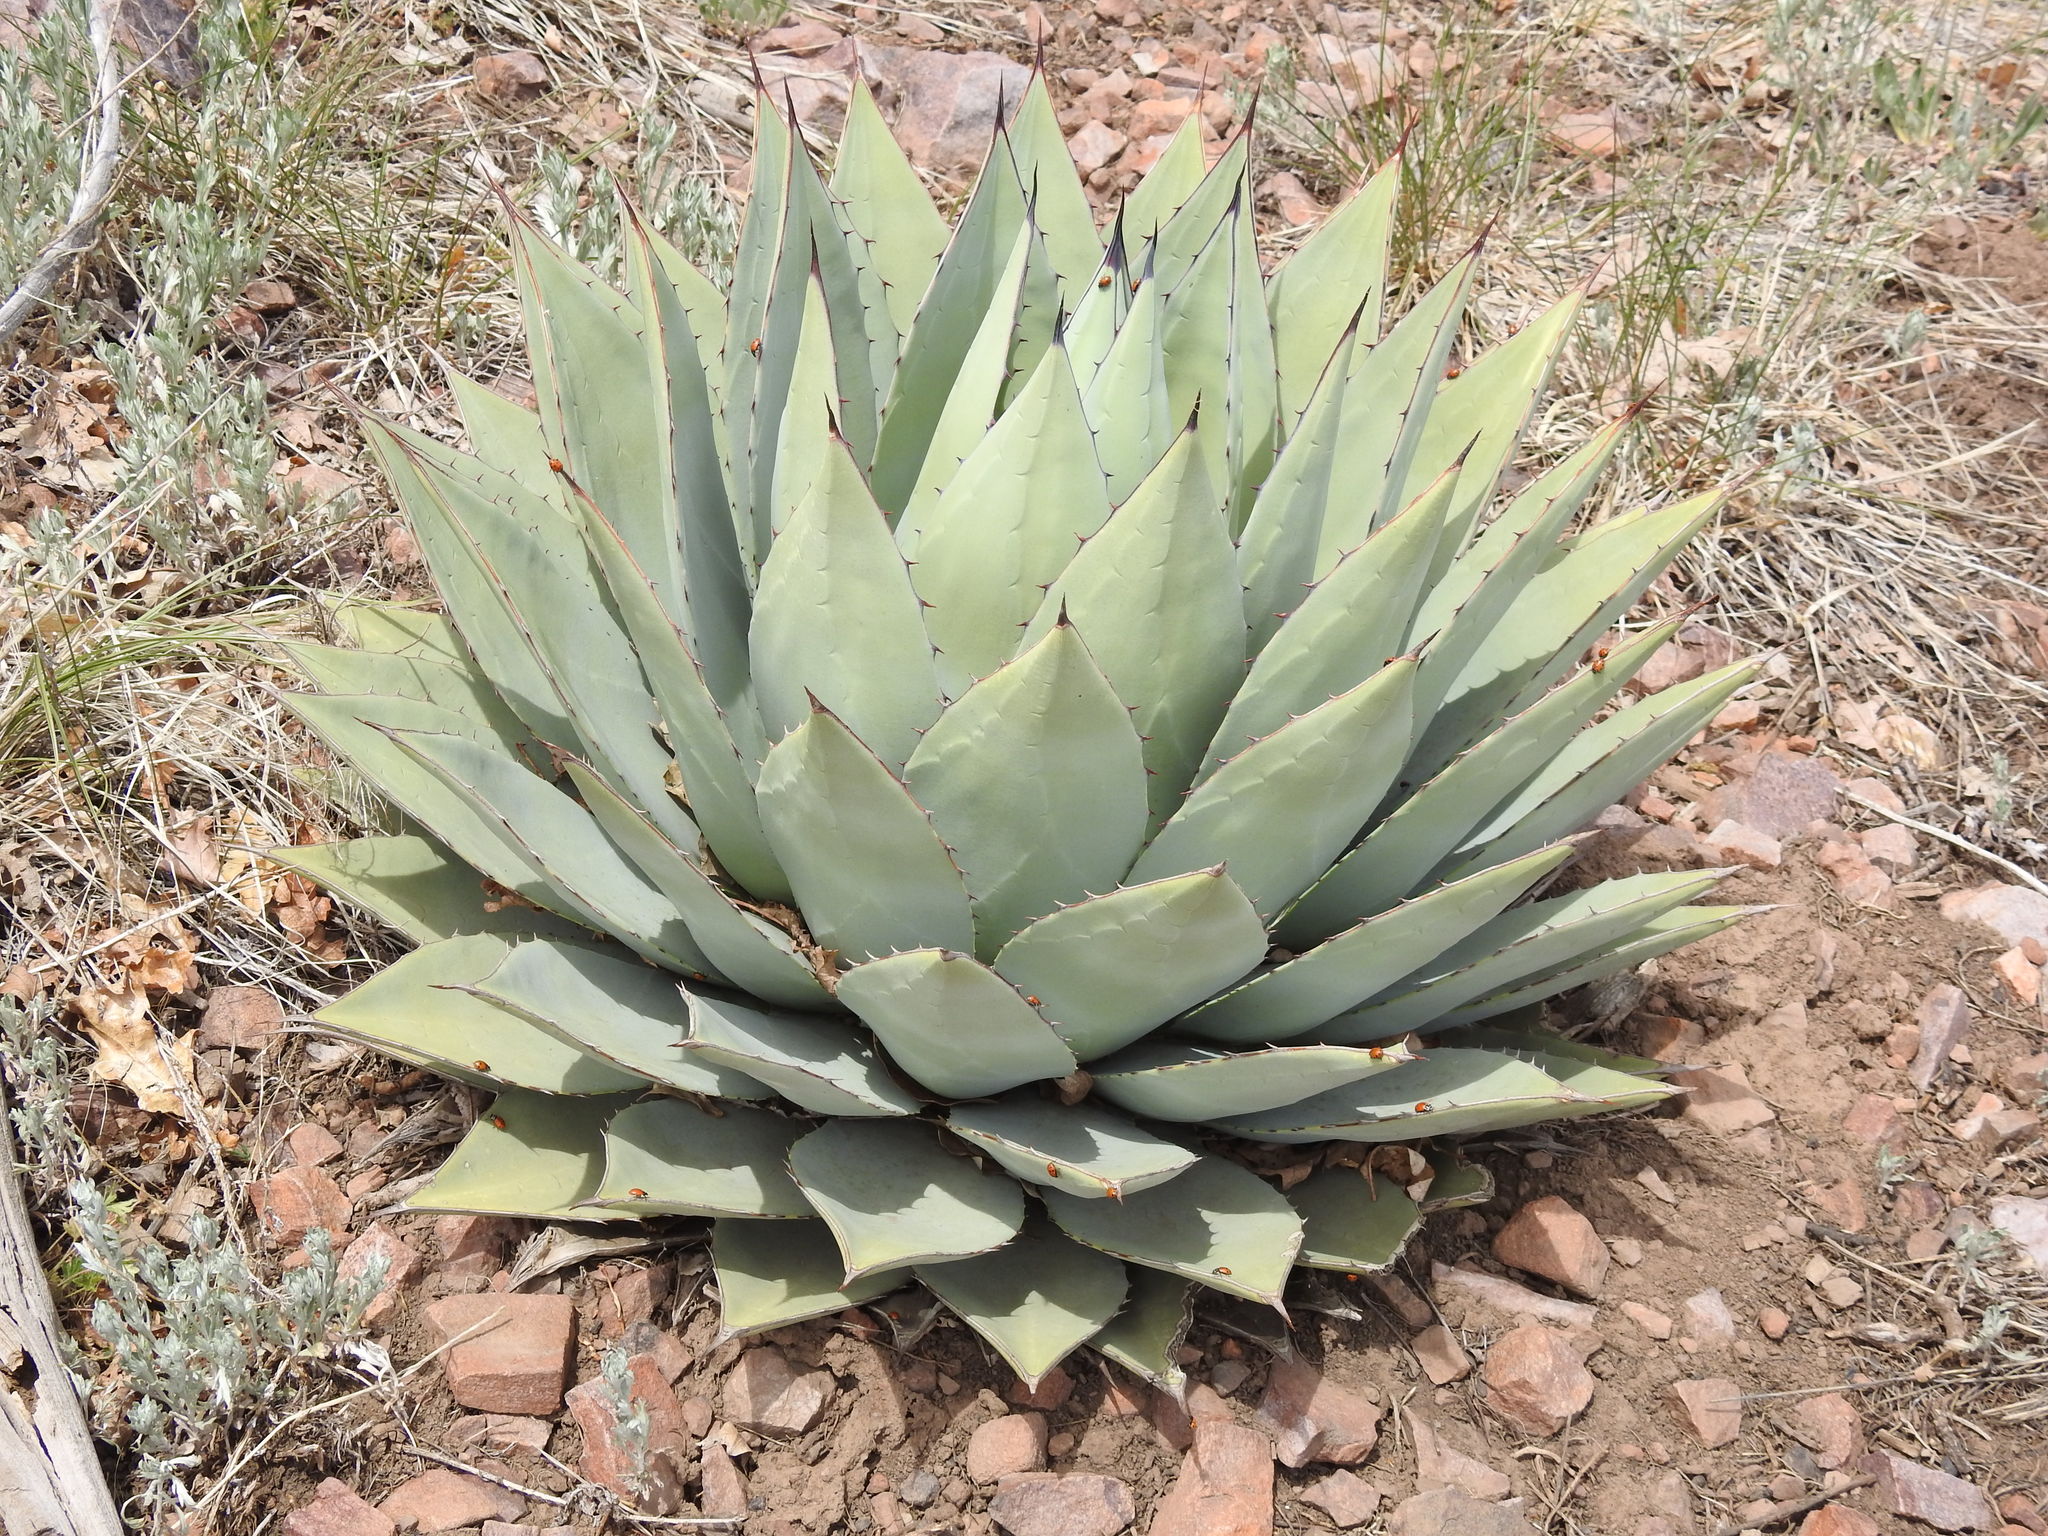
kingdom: Plantae
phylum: Tracheophyta
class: Liliopsida
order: Asparagales
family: Asparagaceae
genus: Agave
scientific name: Agave parryi
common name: Parry's agave
